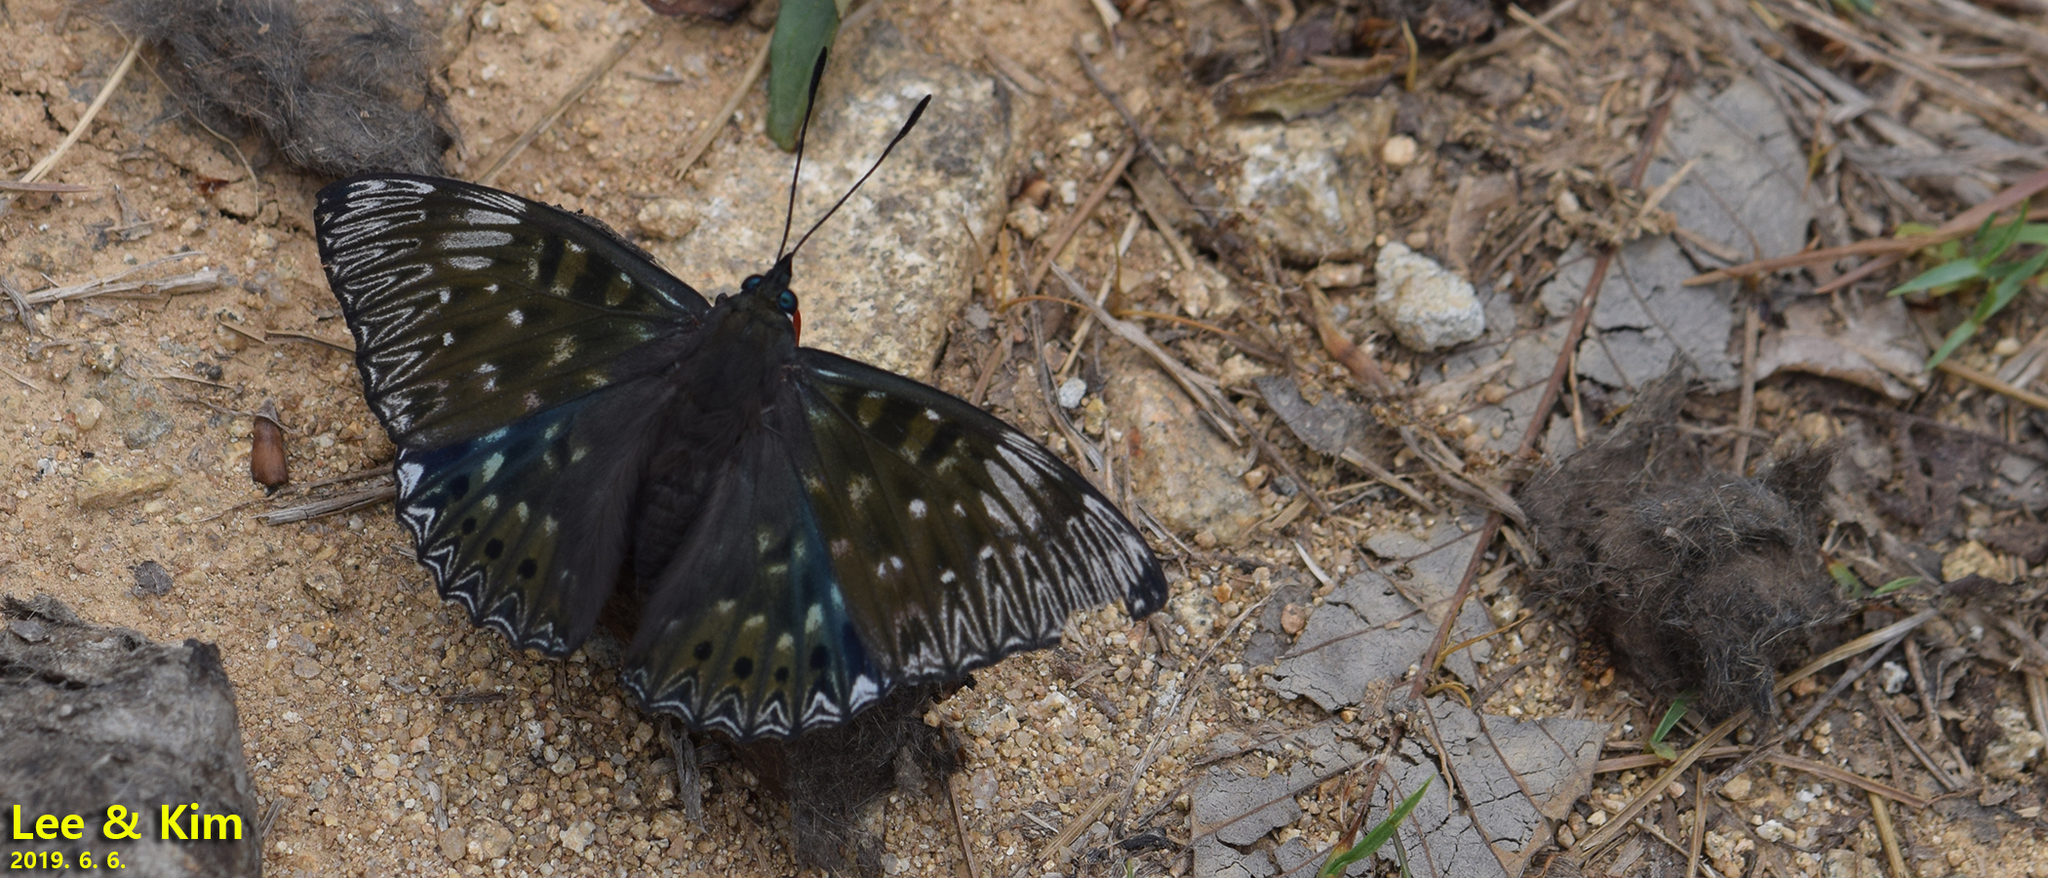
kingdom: Animalia
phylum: Arthropoda
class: Insecta
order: Lepidoptera
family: Nymphalidae
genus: Dichorragia
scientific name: Dichorragia nesimachus
